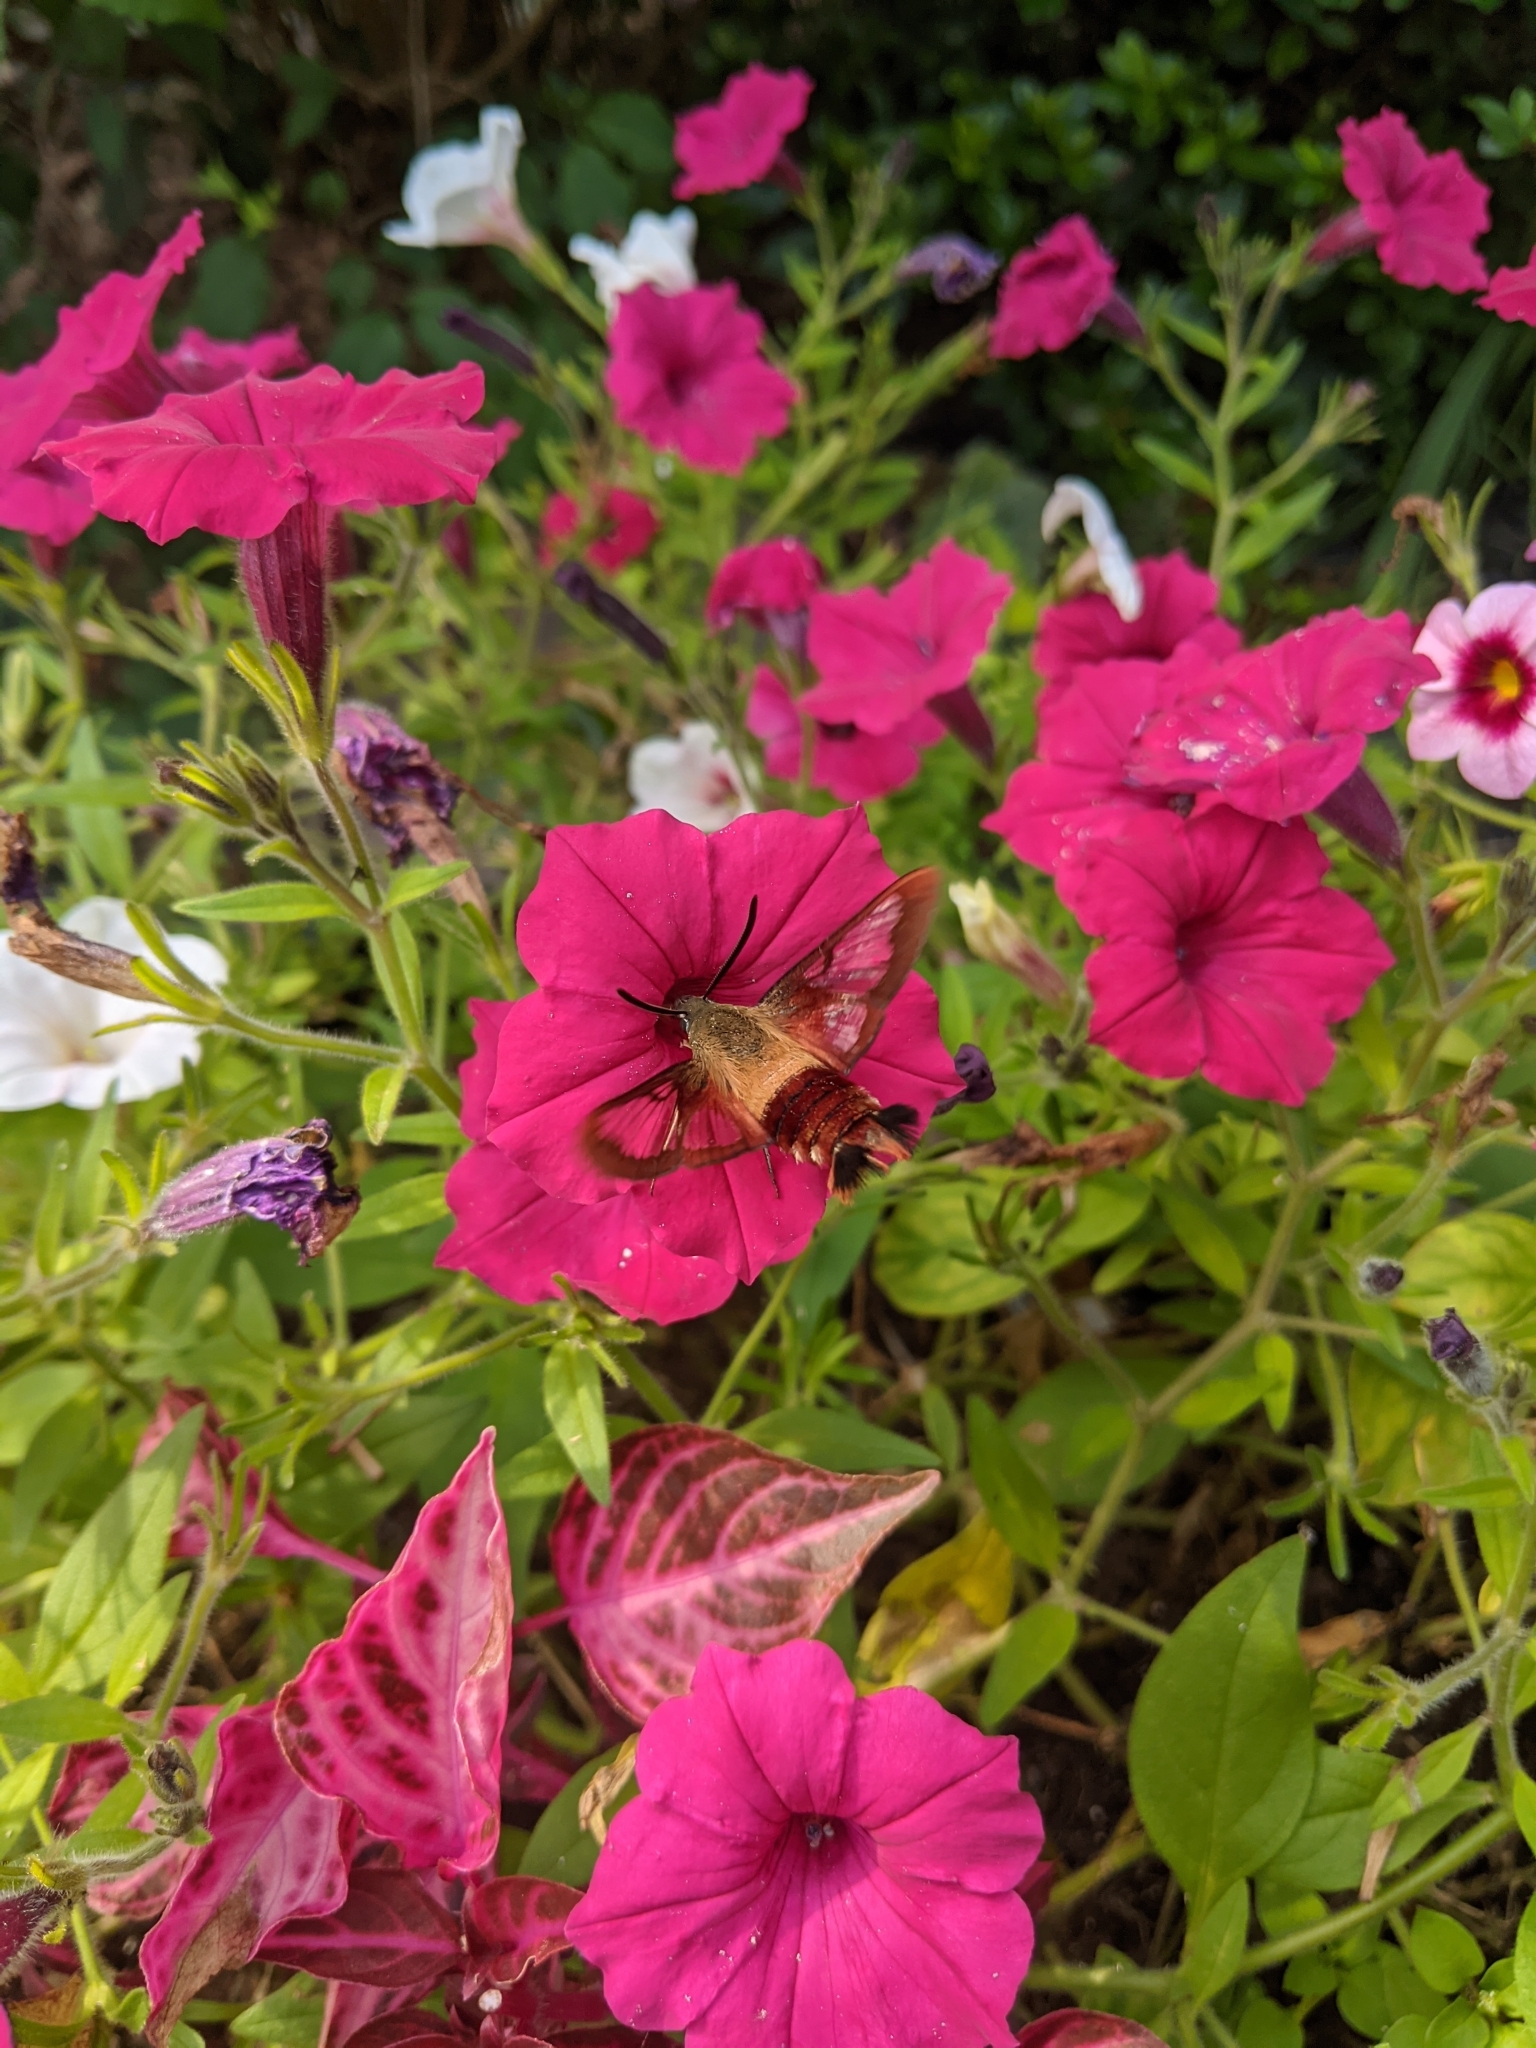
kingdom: Animalia
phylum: Arthropoda
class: Insecta
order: Lepidoptera
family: Sphingidae
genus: Hemaris
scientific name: Hemaris thysbe
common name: Common clear-wing
